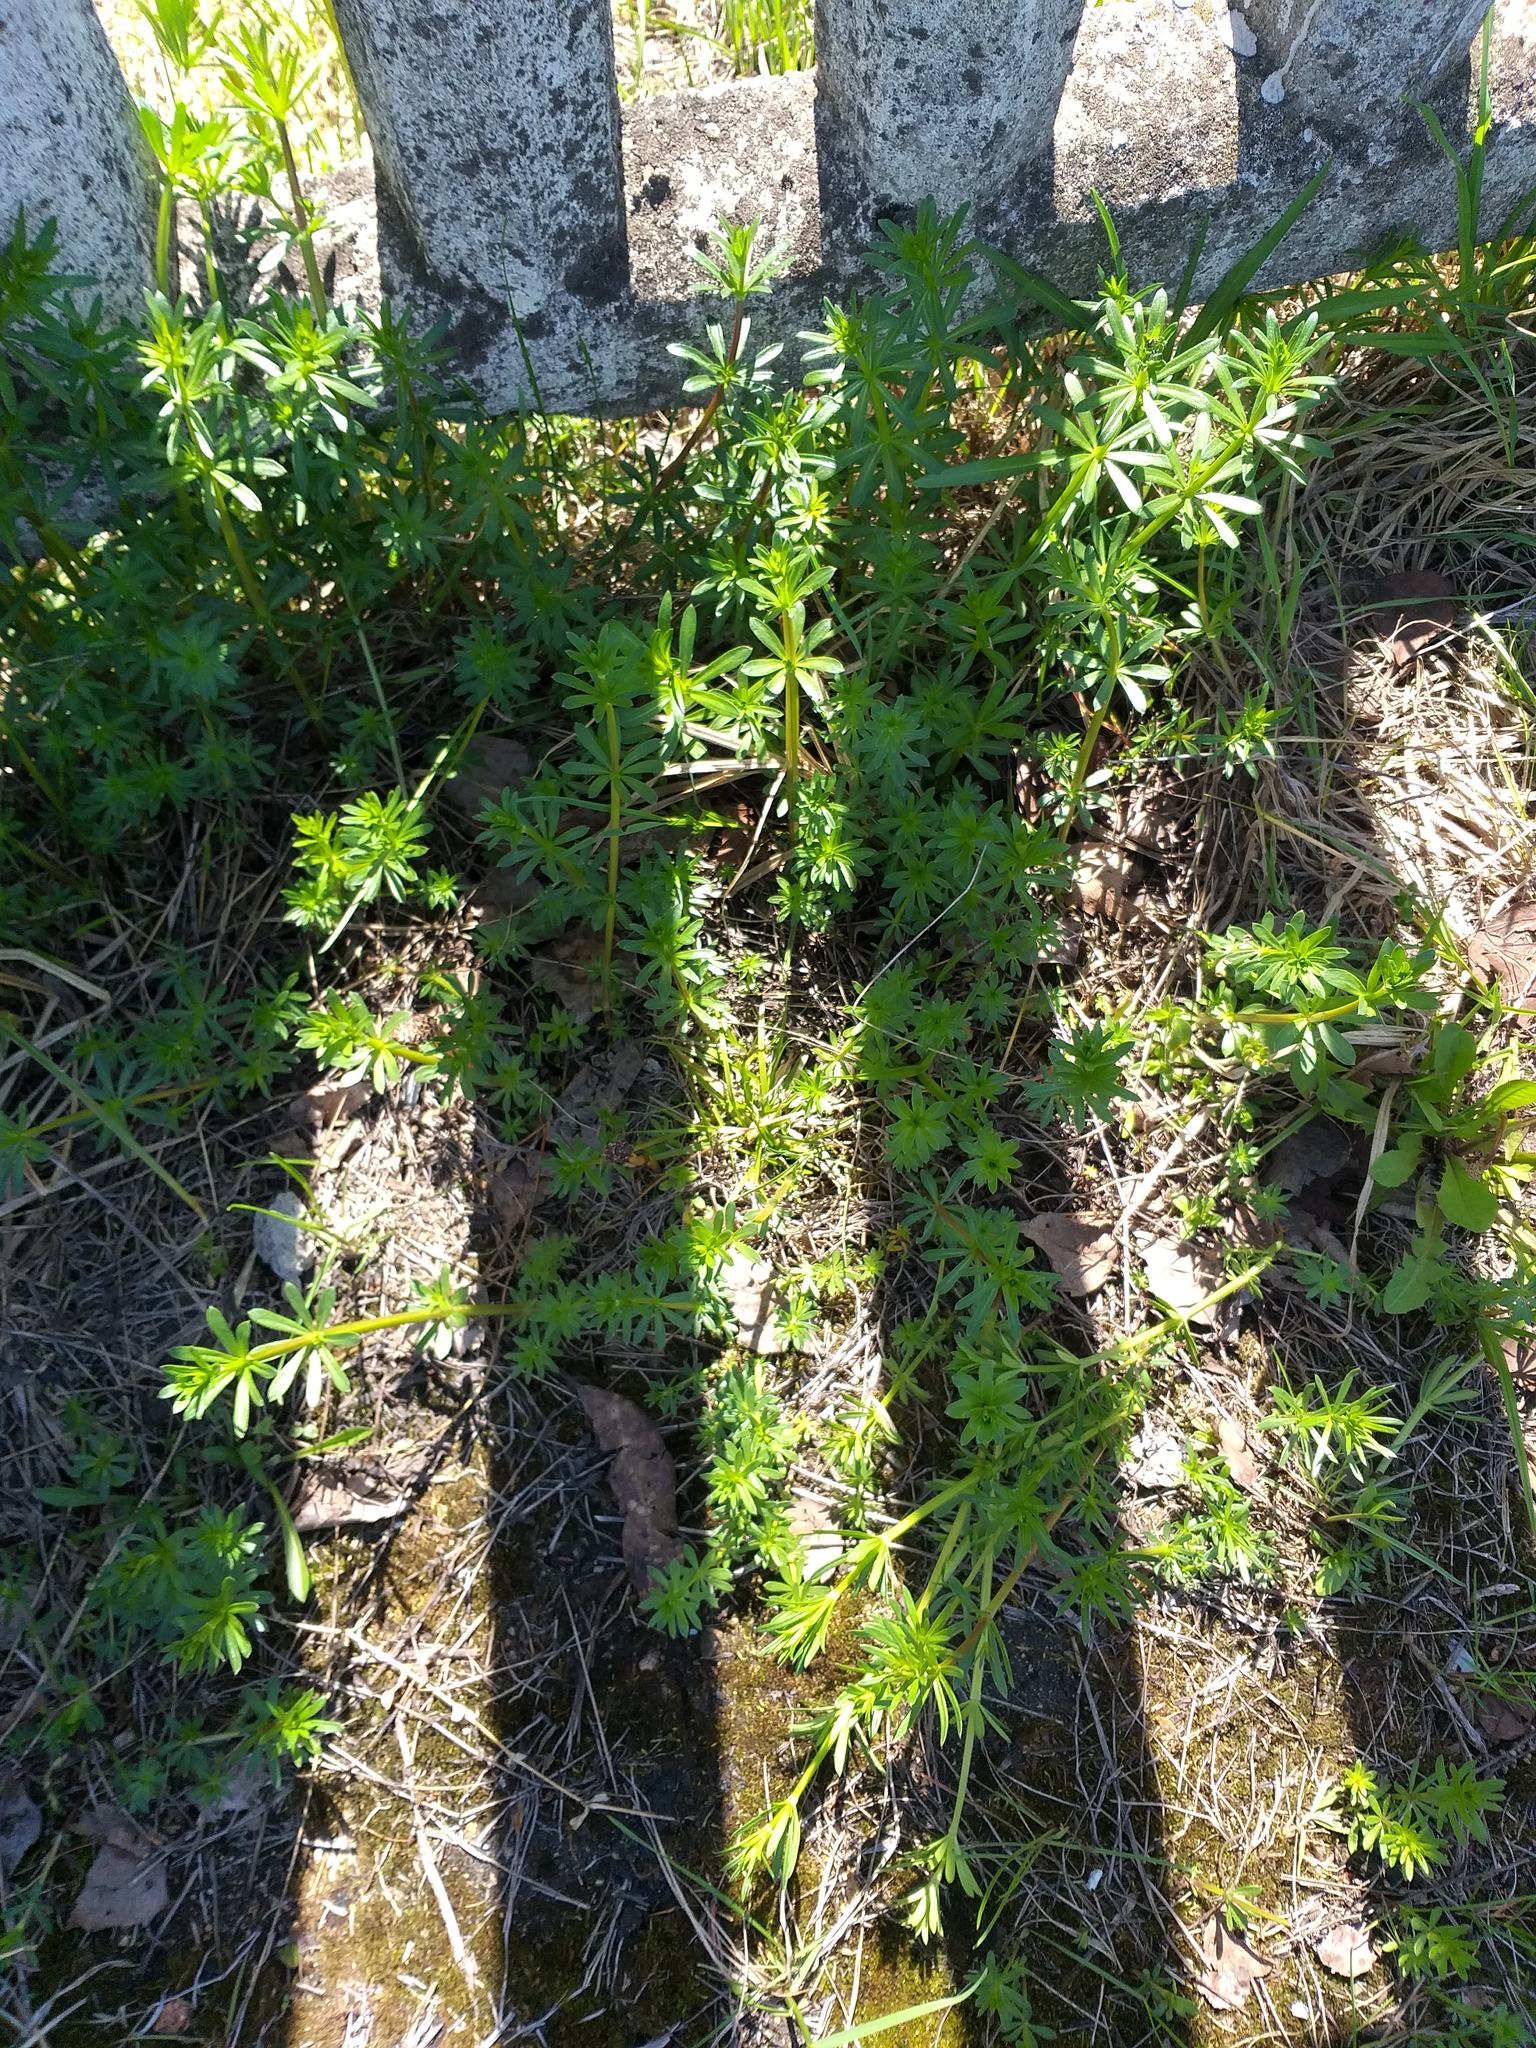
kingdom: Plantae
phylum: Tracheophyta
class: Magnoliopsida
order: Gentianales
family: Rubiaceae
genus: Galium
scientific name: Galium mollugo
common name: Hedge bedstraw
